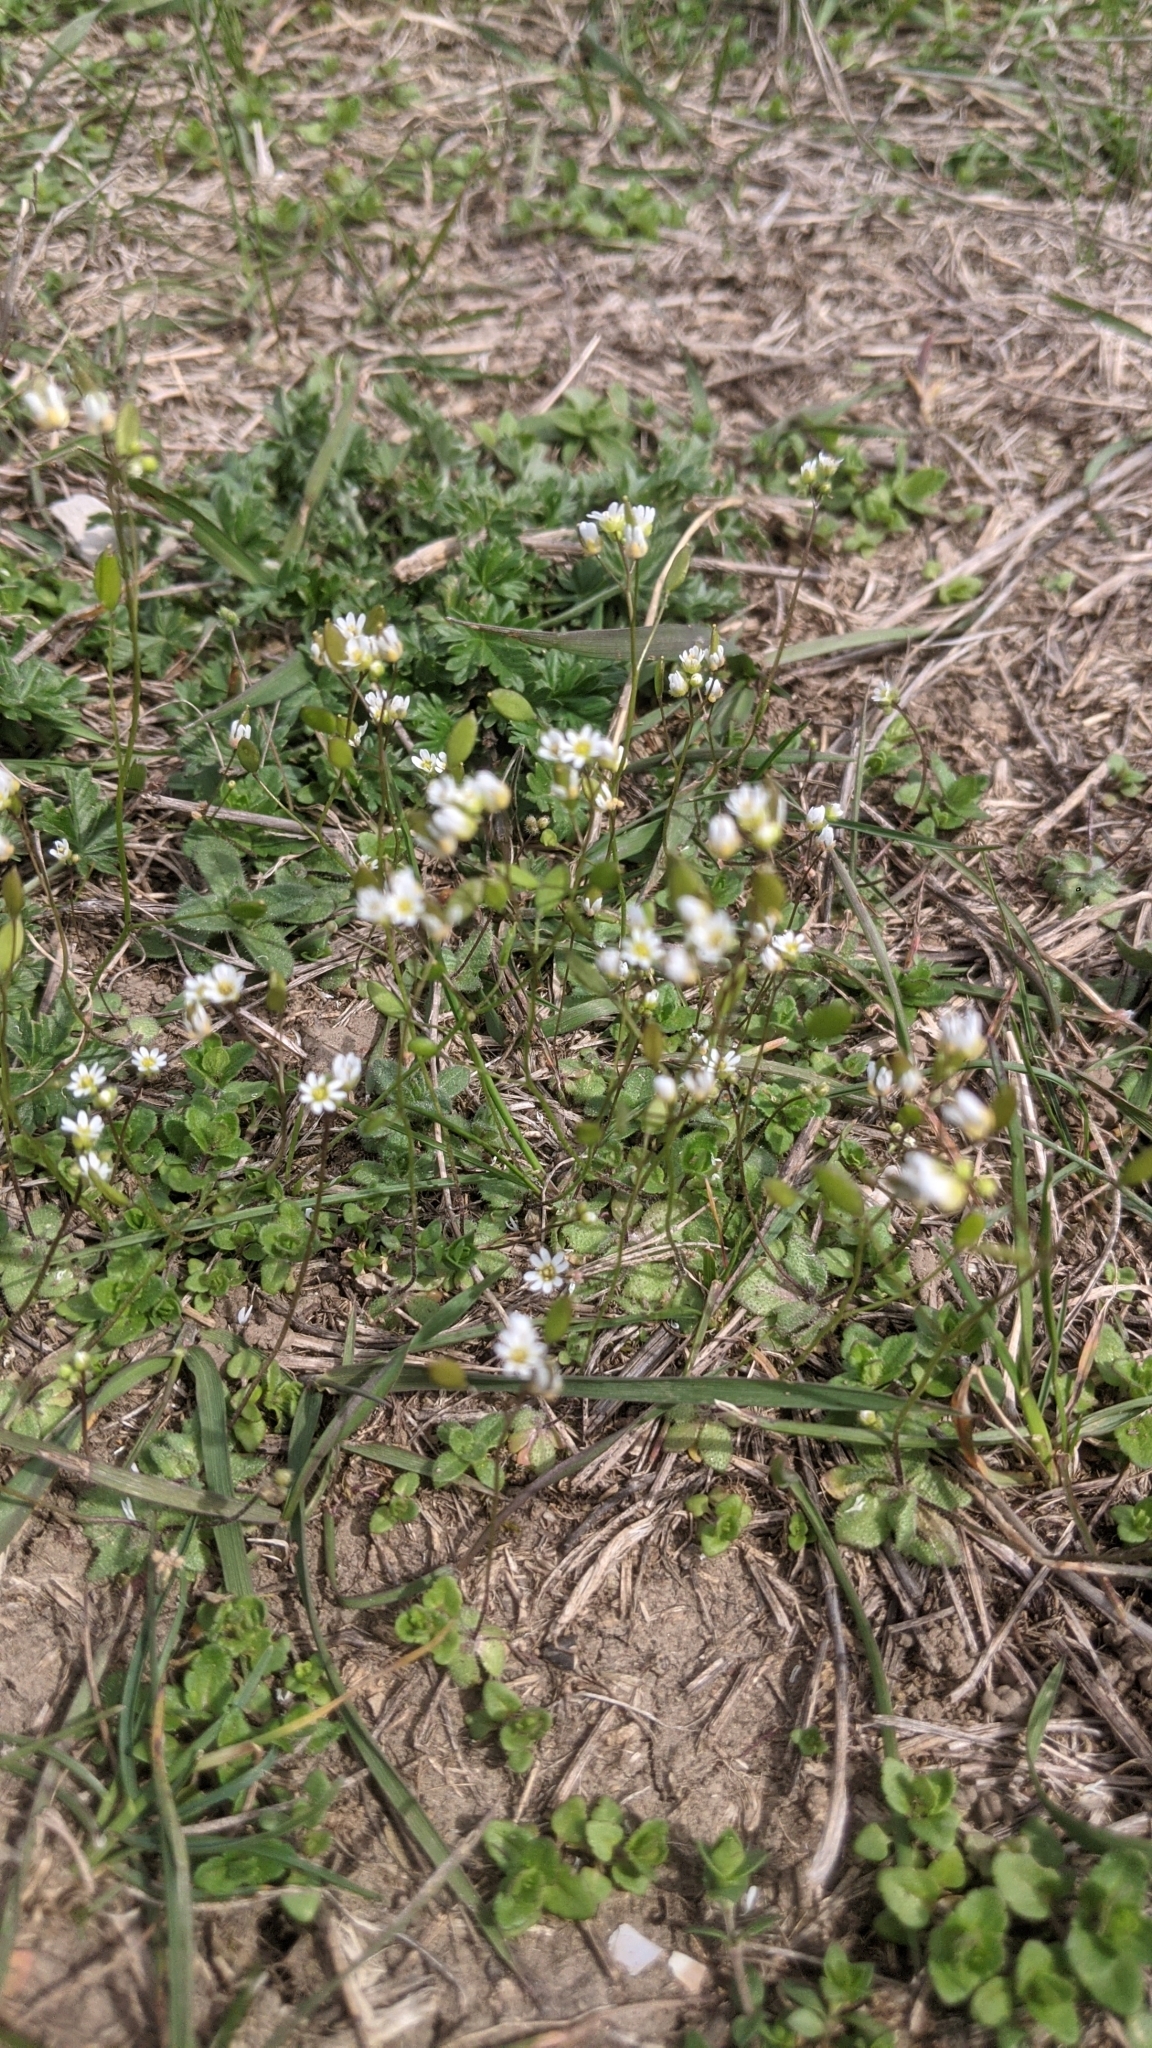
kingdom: Plantae
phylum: Tracheophyta
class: Magnoliopsida
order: Brassicales
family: Brassicaceae
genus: Draba
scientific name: Draba verna
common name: Spring draba
